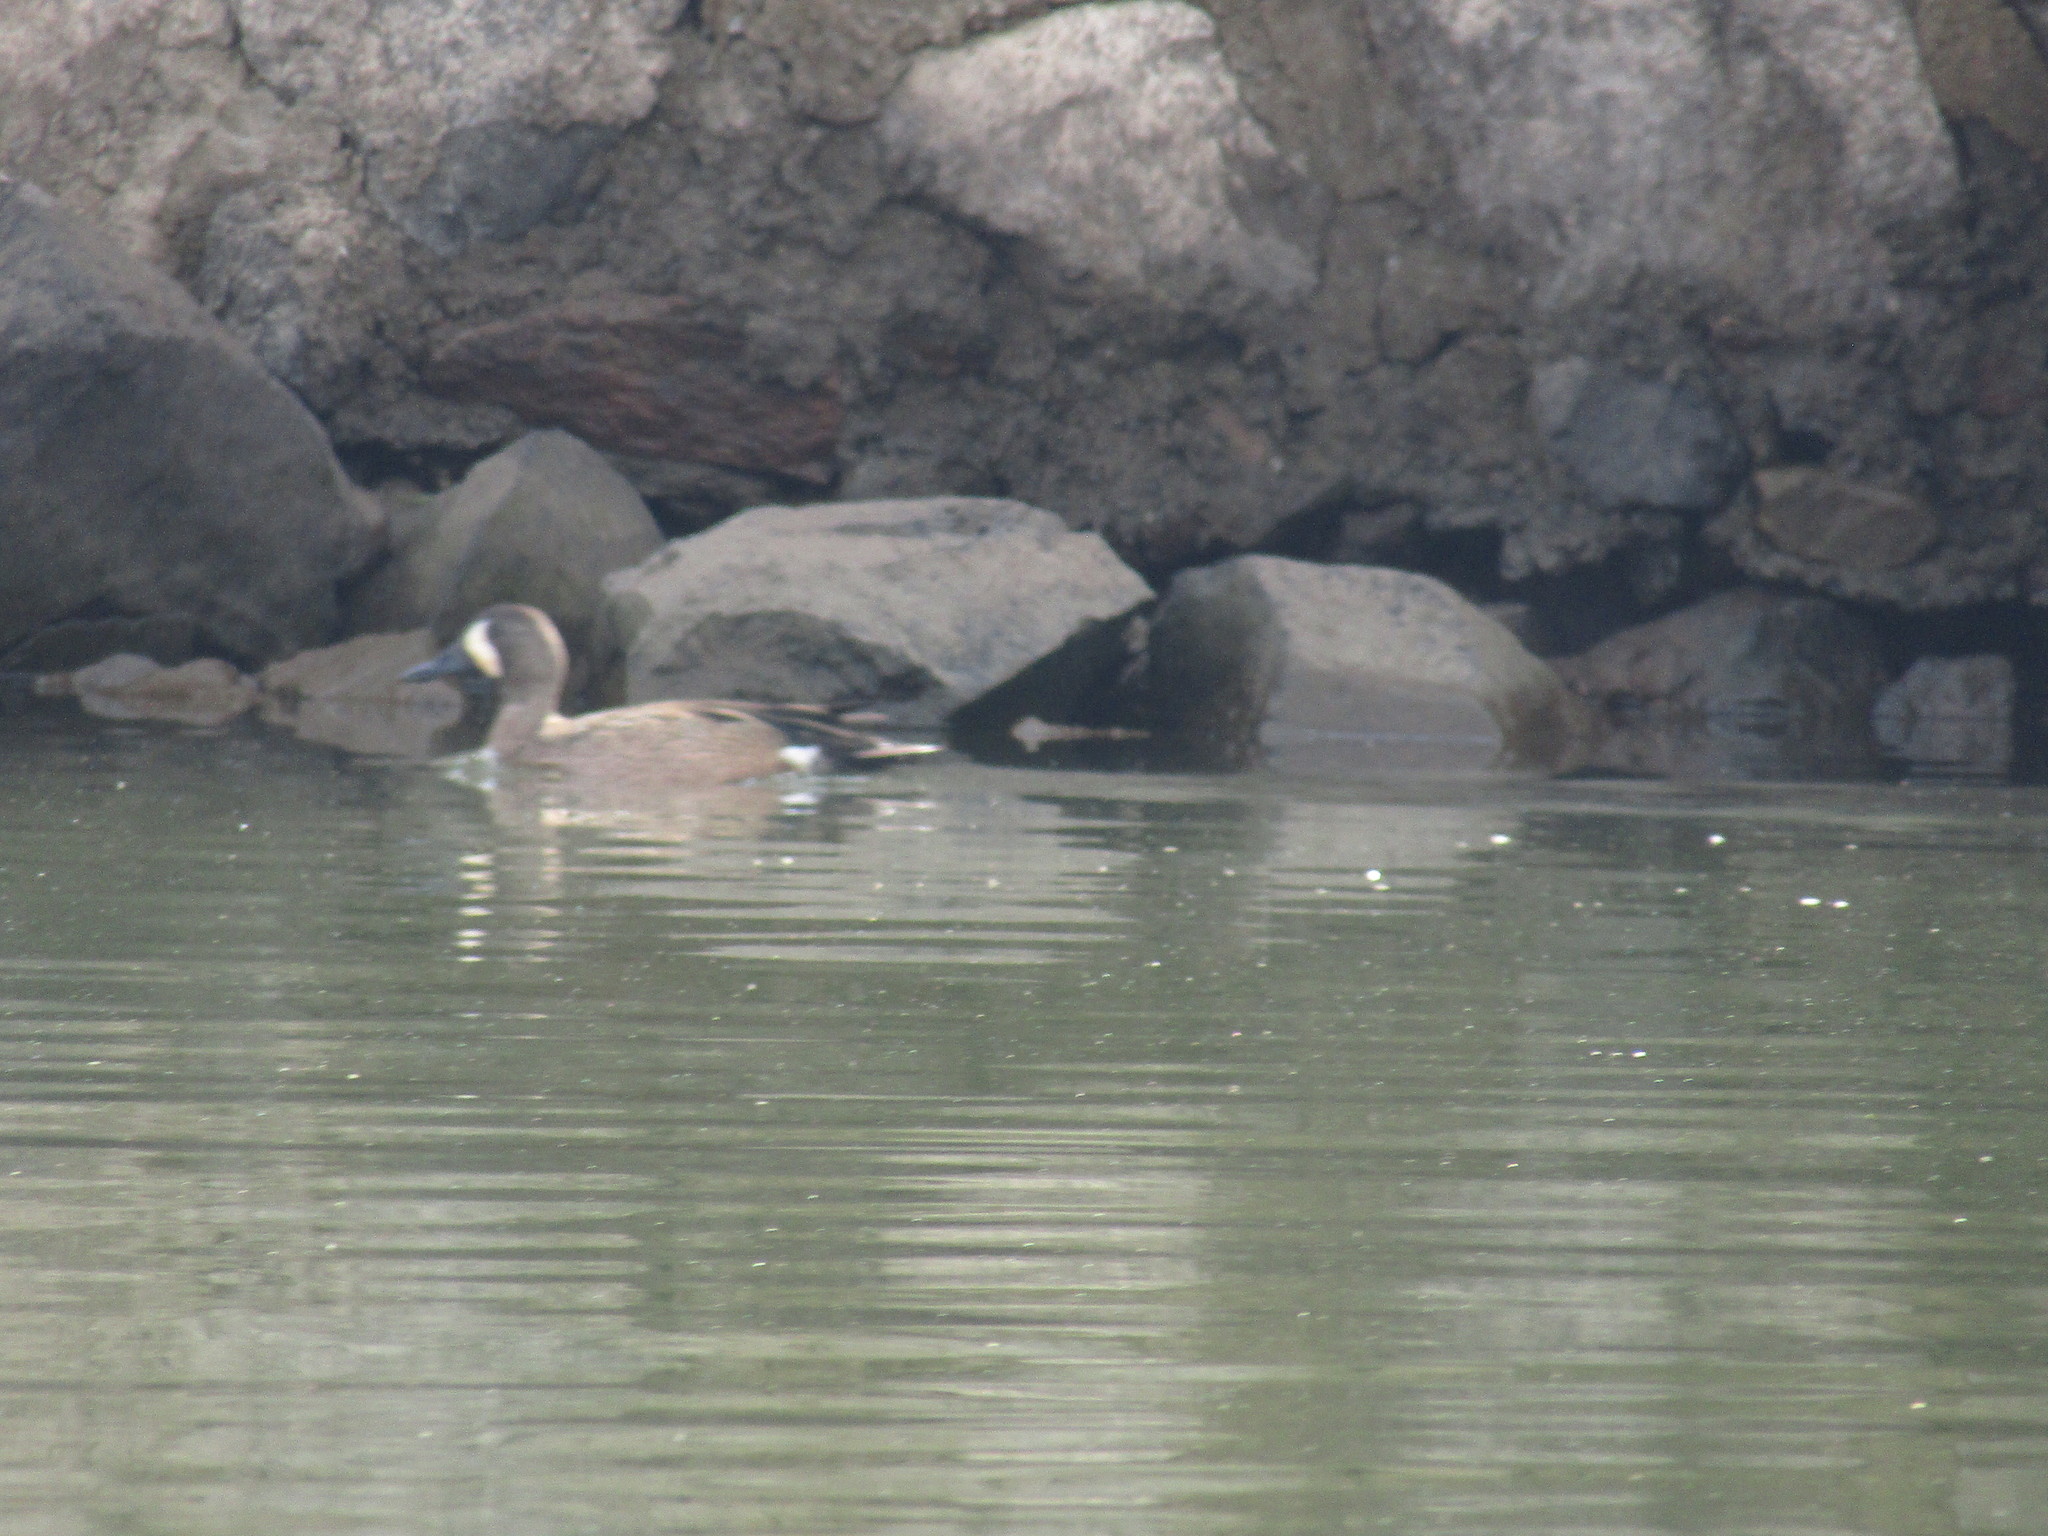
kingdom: Animalia
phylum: Chordata
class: Aves
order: Anseriformes
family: Anatidae
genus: Spatula
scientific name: Spatula discors
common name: Blue-winged teal
